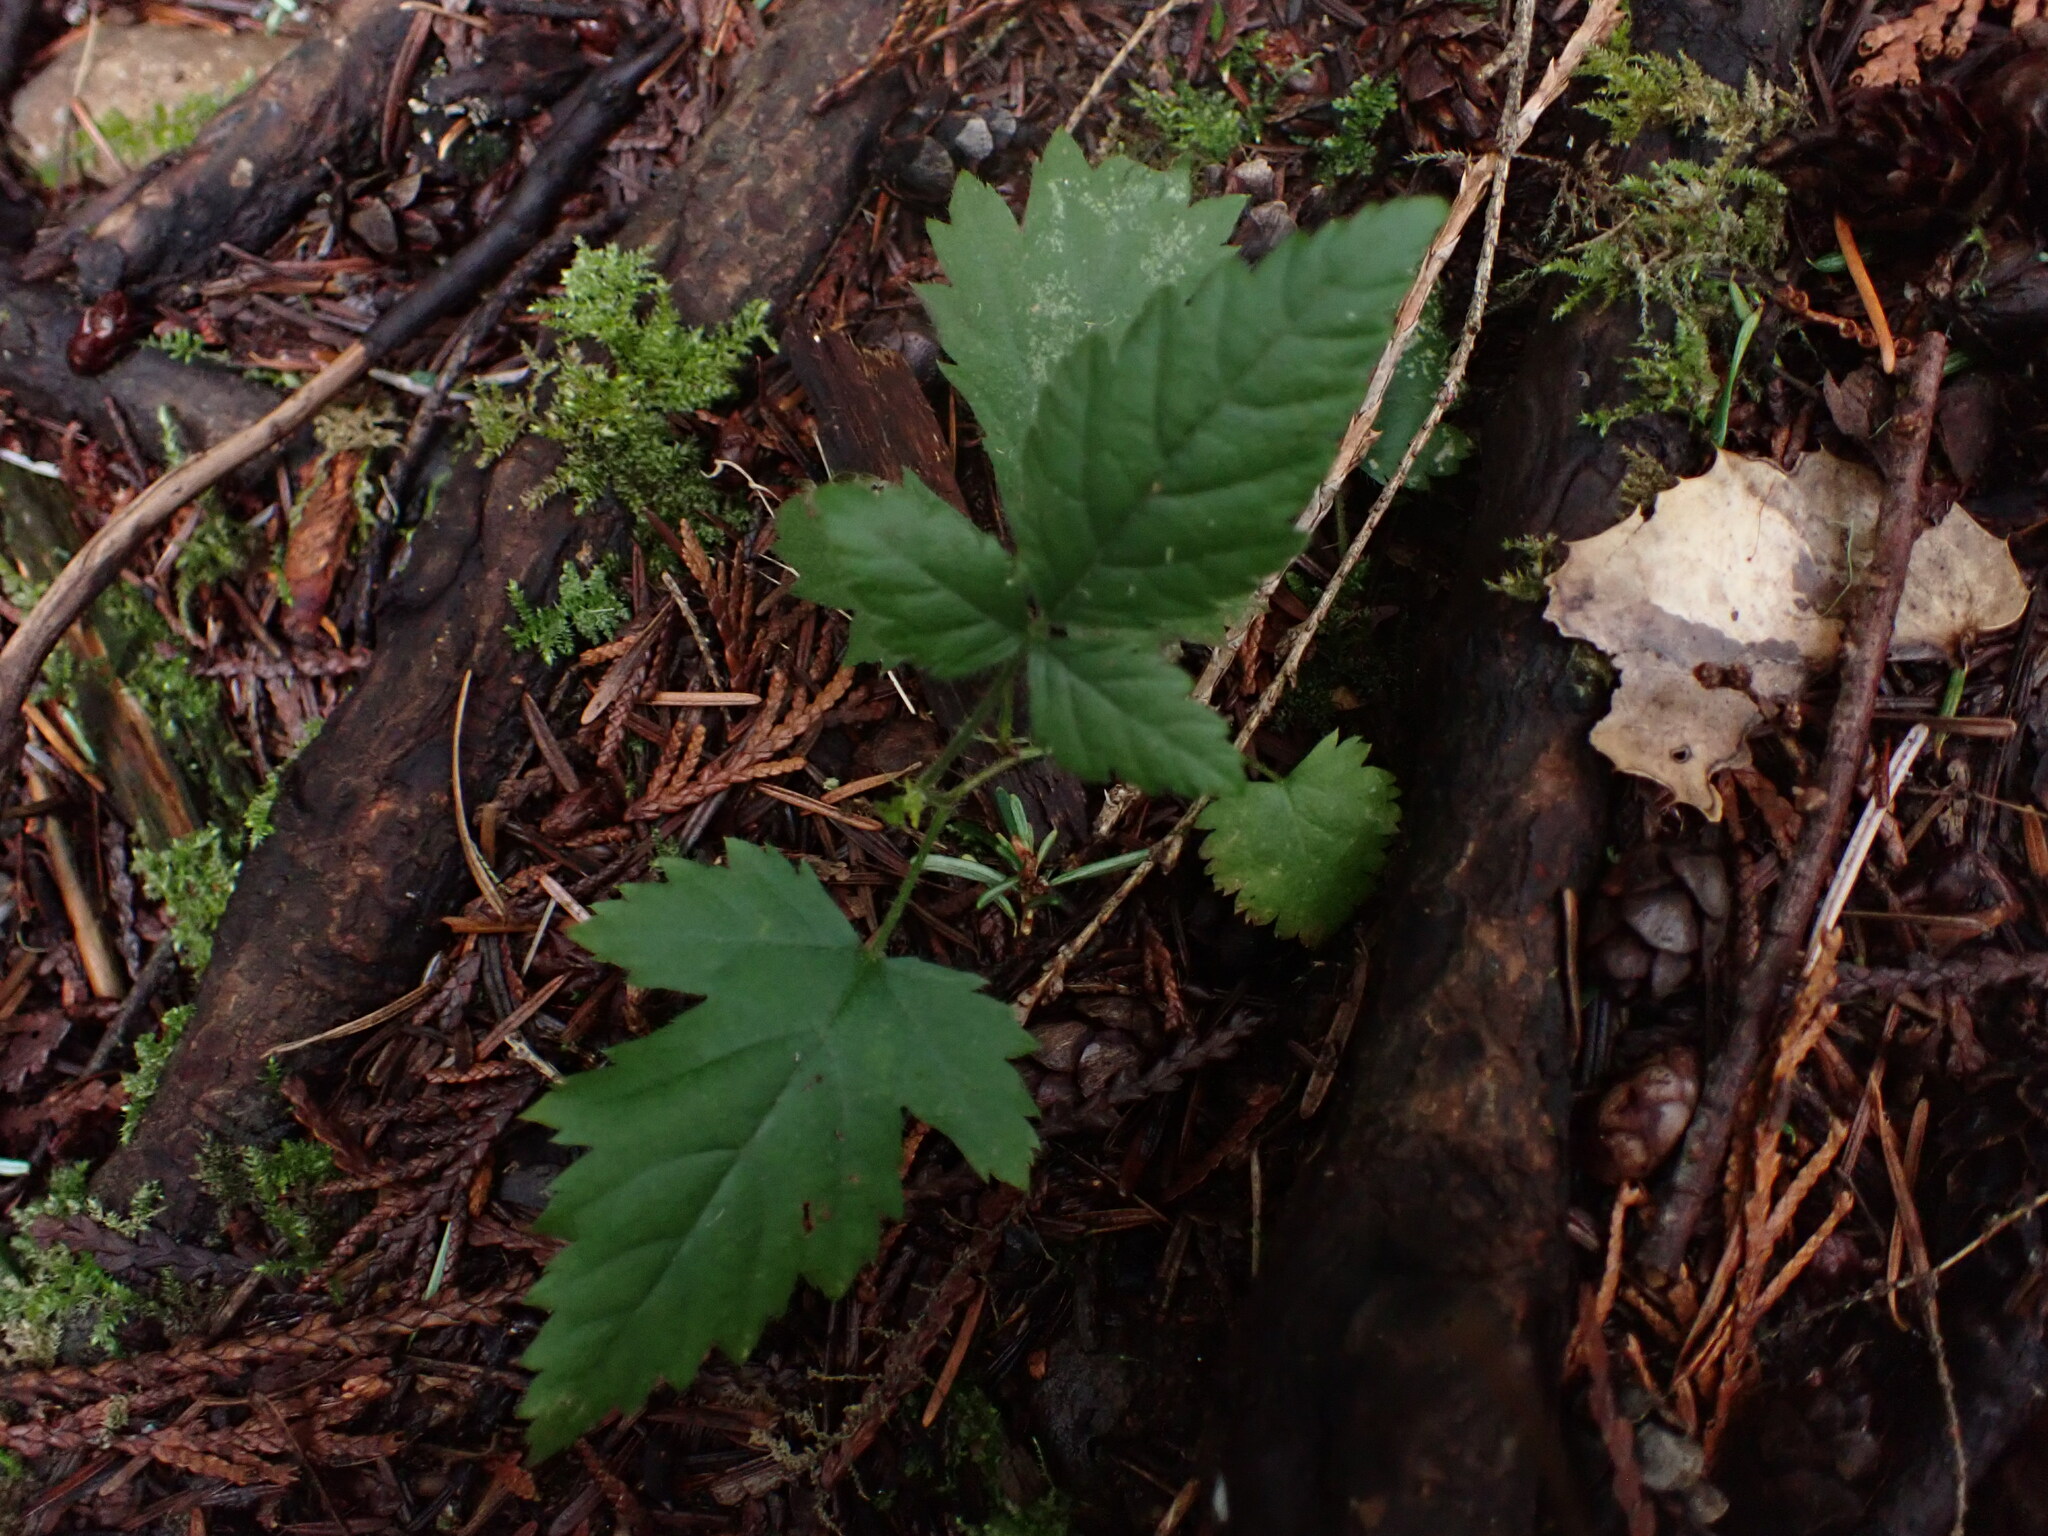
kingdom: Plantae
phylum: Tracheophyta
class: Magnoliopsida
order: Rosales
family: Rosaceae
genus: Rubus
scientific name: Rubus ursinus
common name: Pacific blackberry
